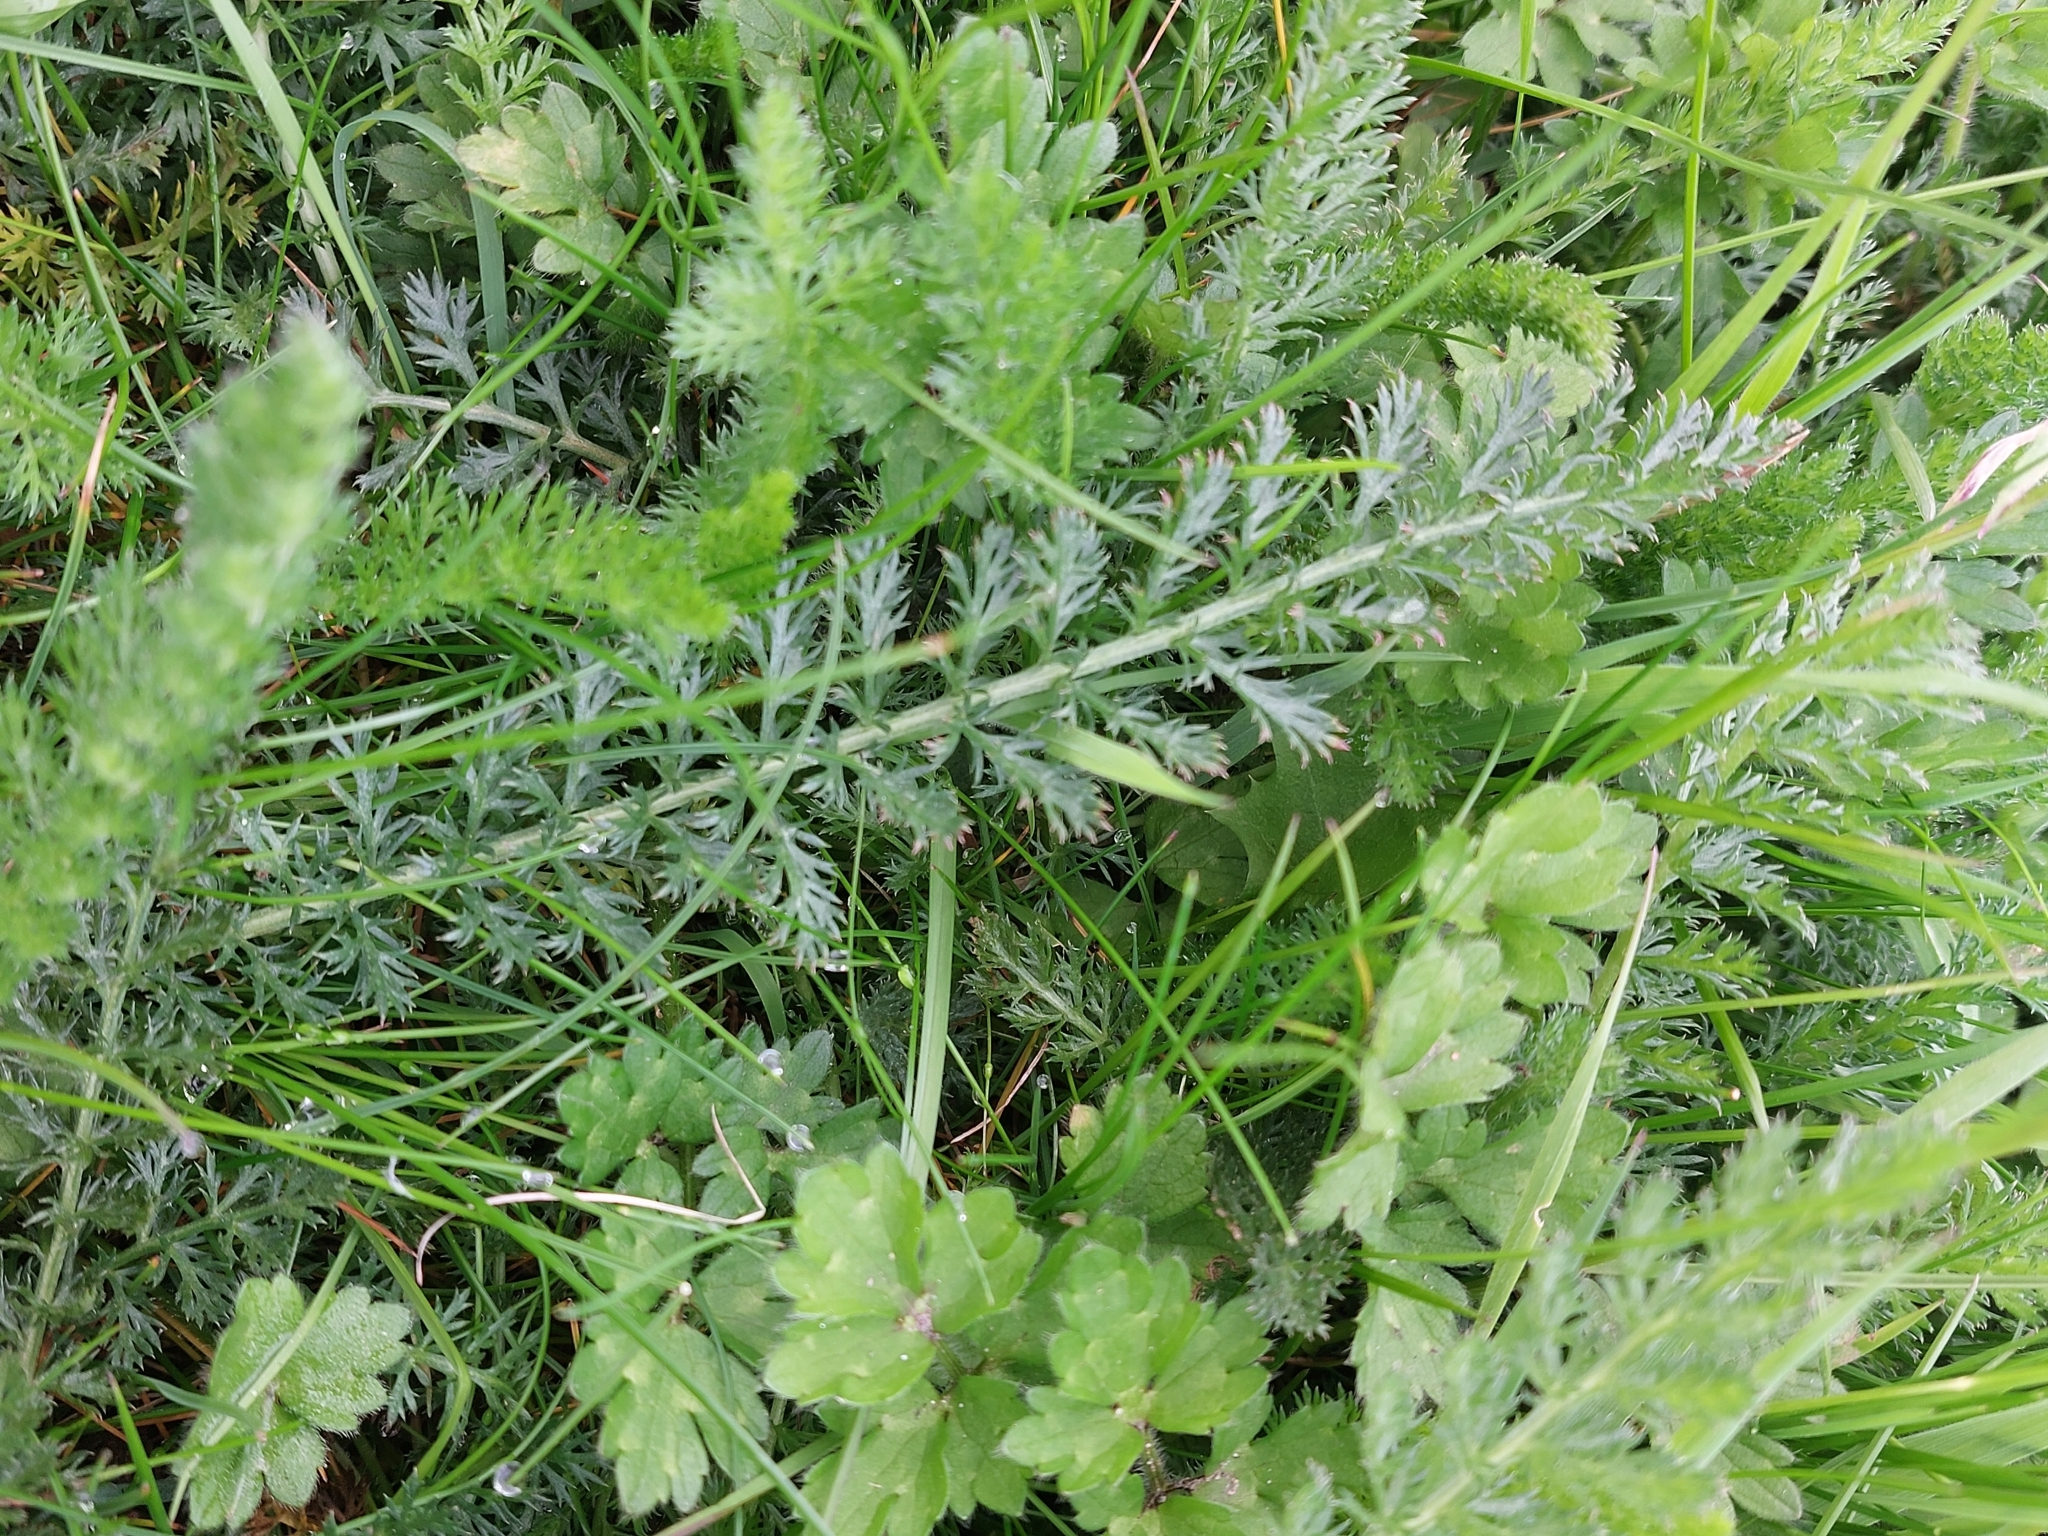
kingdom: Plantae
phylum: Tracheophyta
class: Magnoliopsida
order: Asterales
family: Asteraceae
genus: Achillea
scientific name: Achillea millefolium
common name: Yarrow
